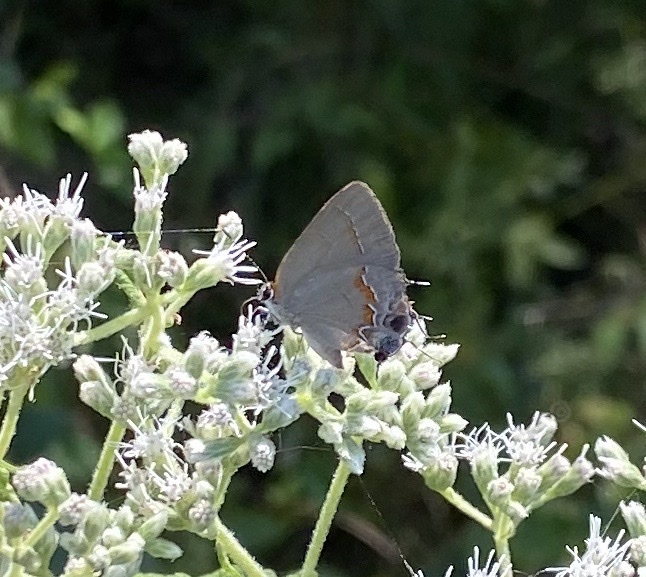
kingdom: Animalia
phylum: Arthropoda
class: Insecta
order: Lepidoptera
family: Lycaenidae
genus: Calycopis
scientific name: Calycopis cecrops
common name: Red-banded hairstreak
